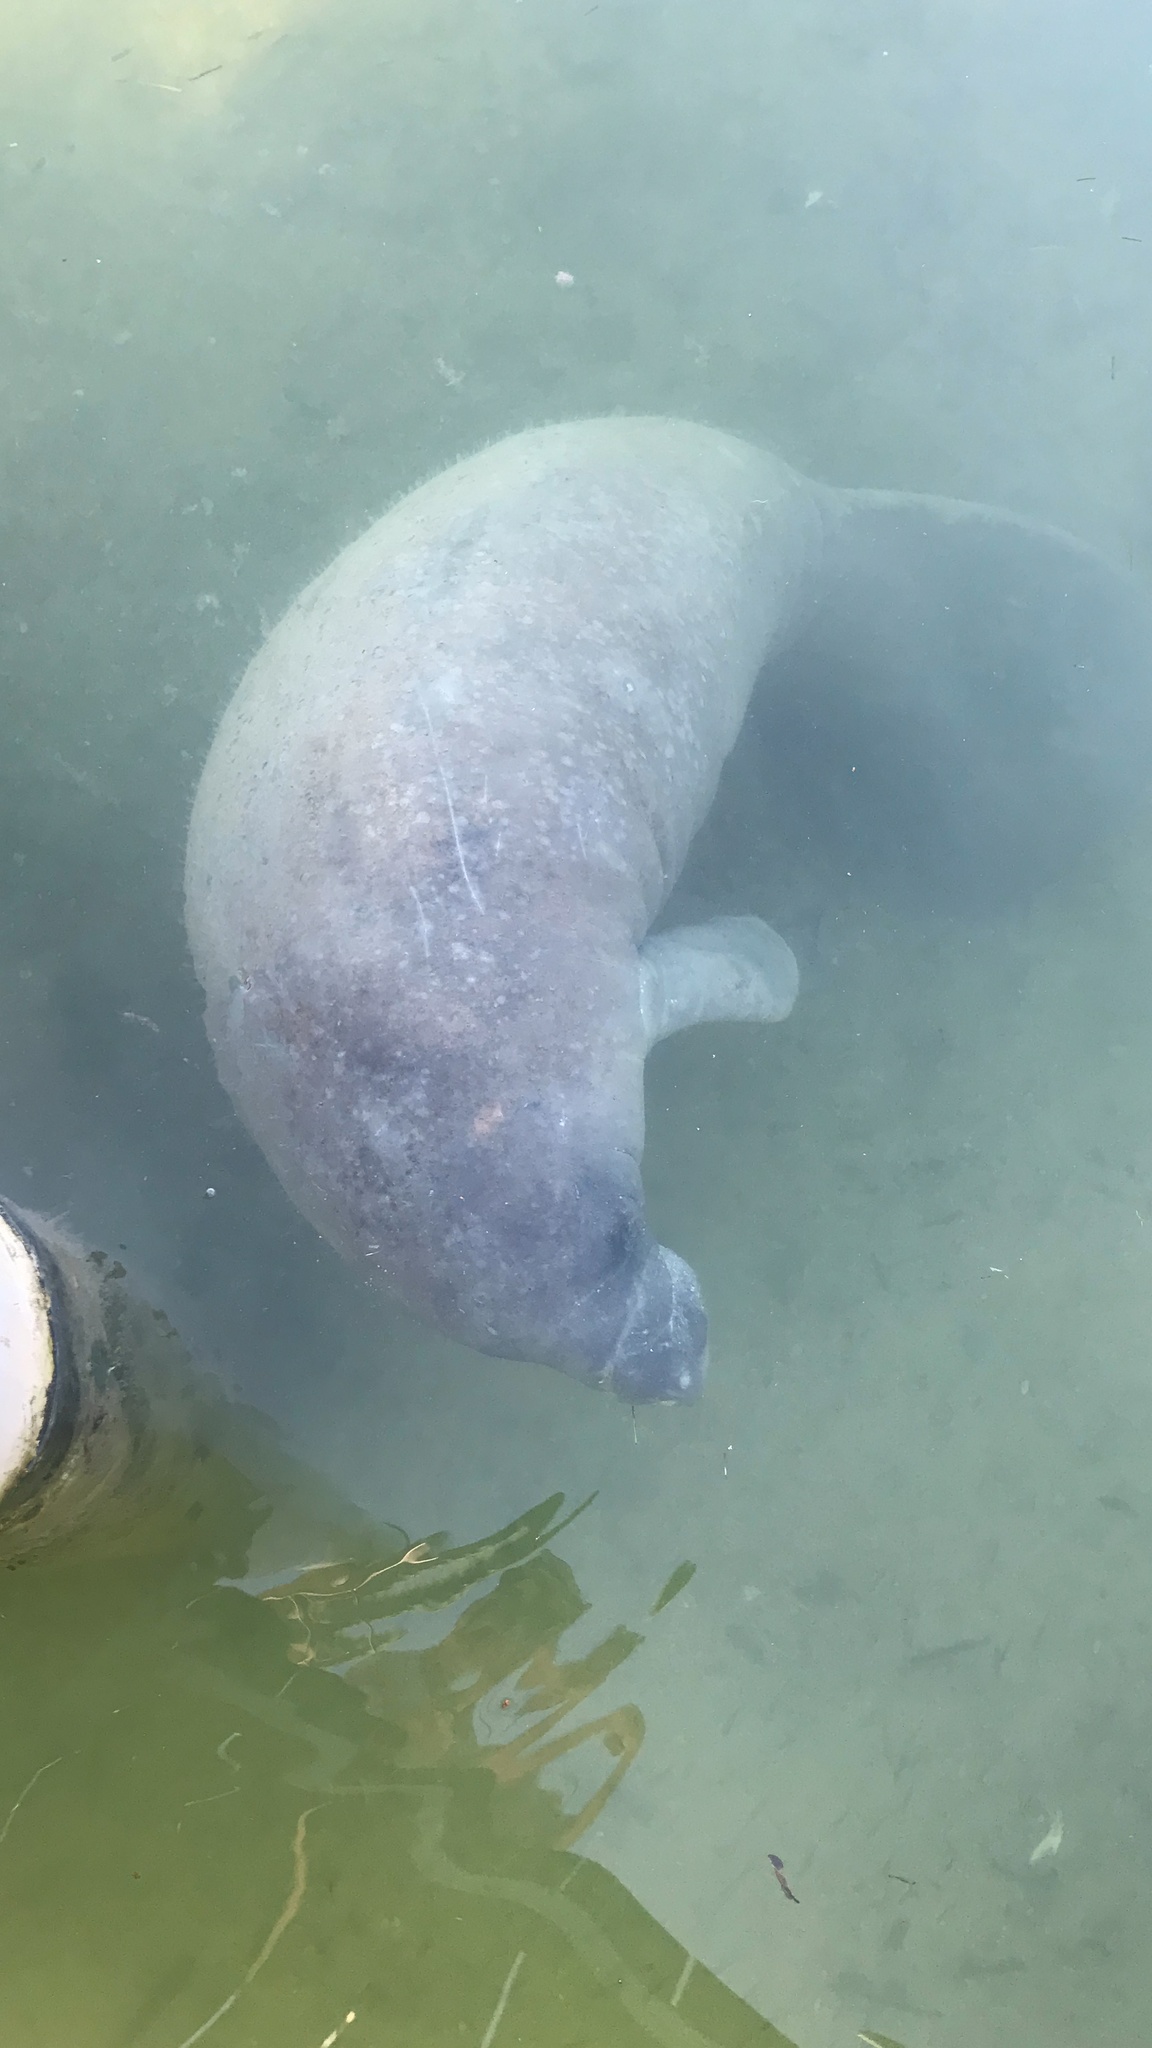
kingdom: Animalia
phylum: Chordata
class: Mammalia
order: Sirenia
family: Trichechidae
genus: Trichechus
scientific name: Trichechus manatus
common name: West indian manatee
